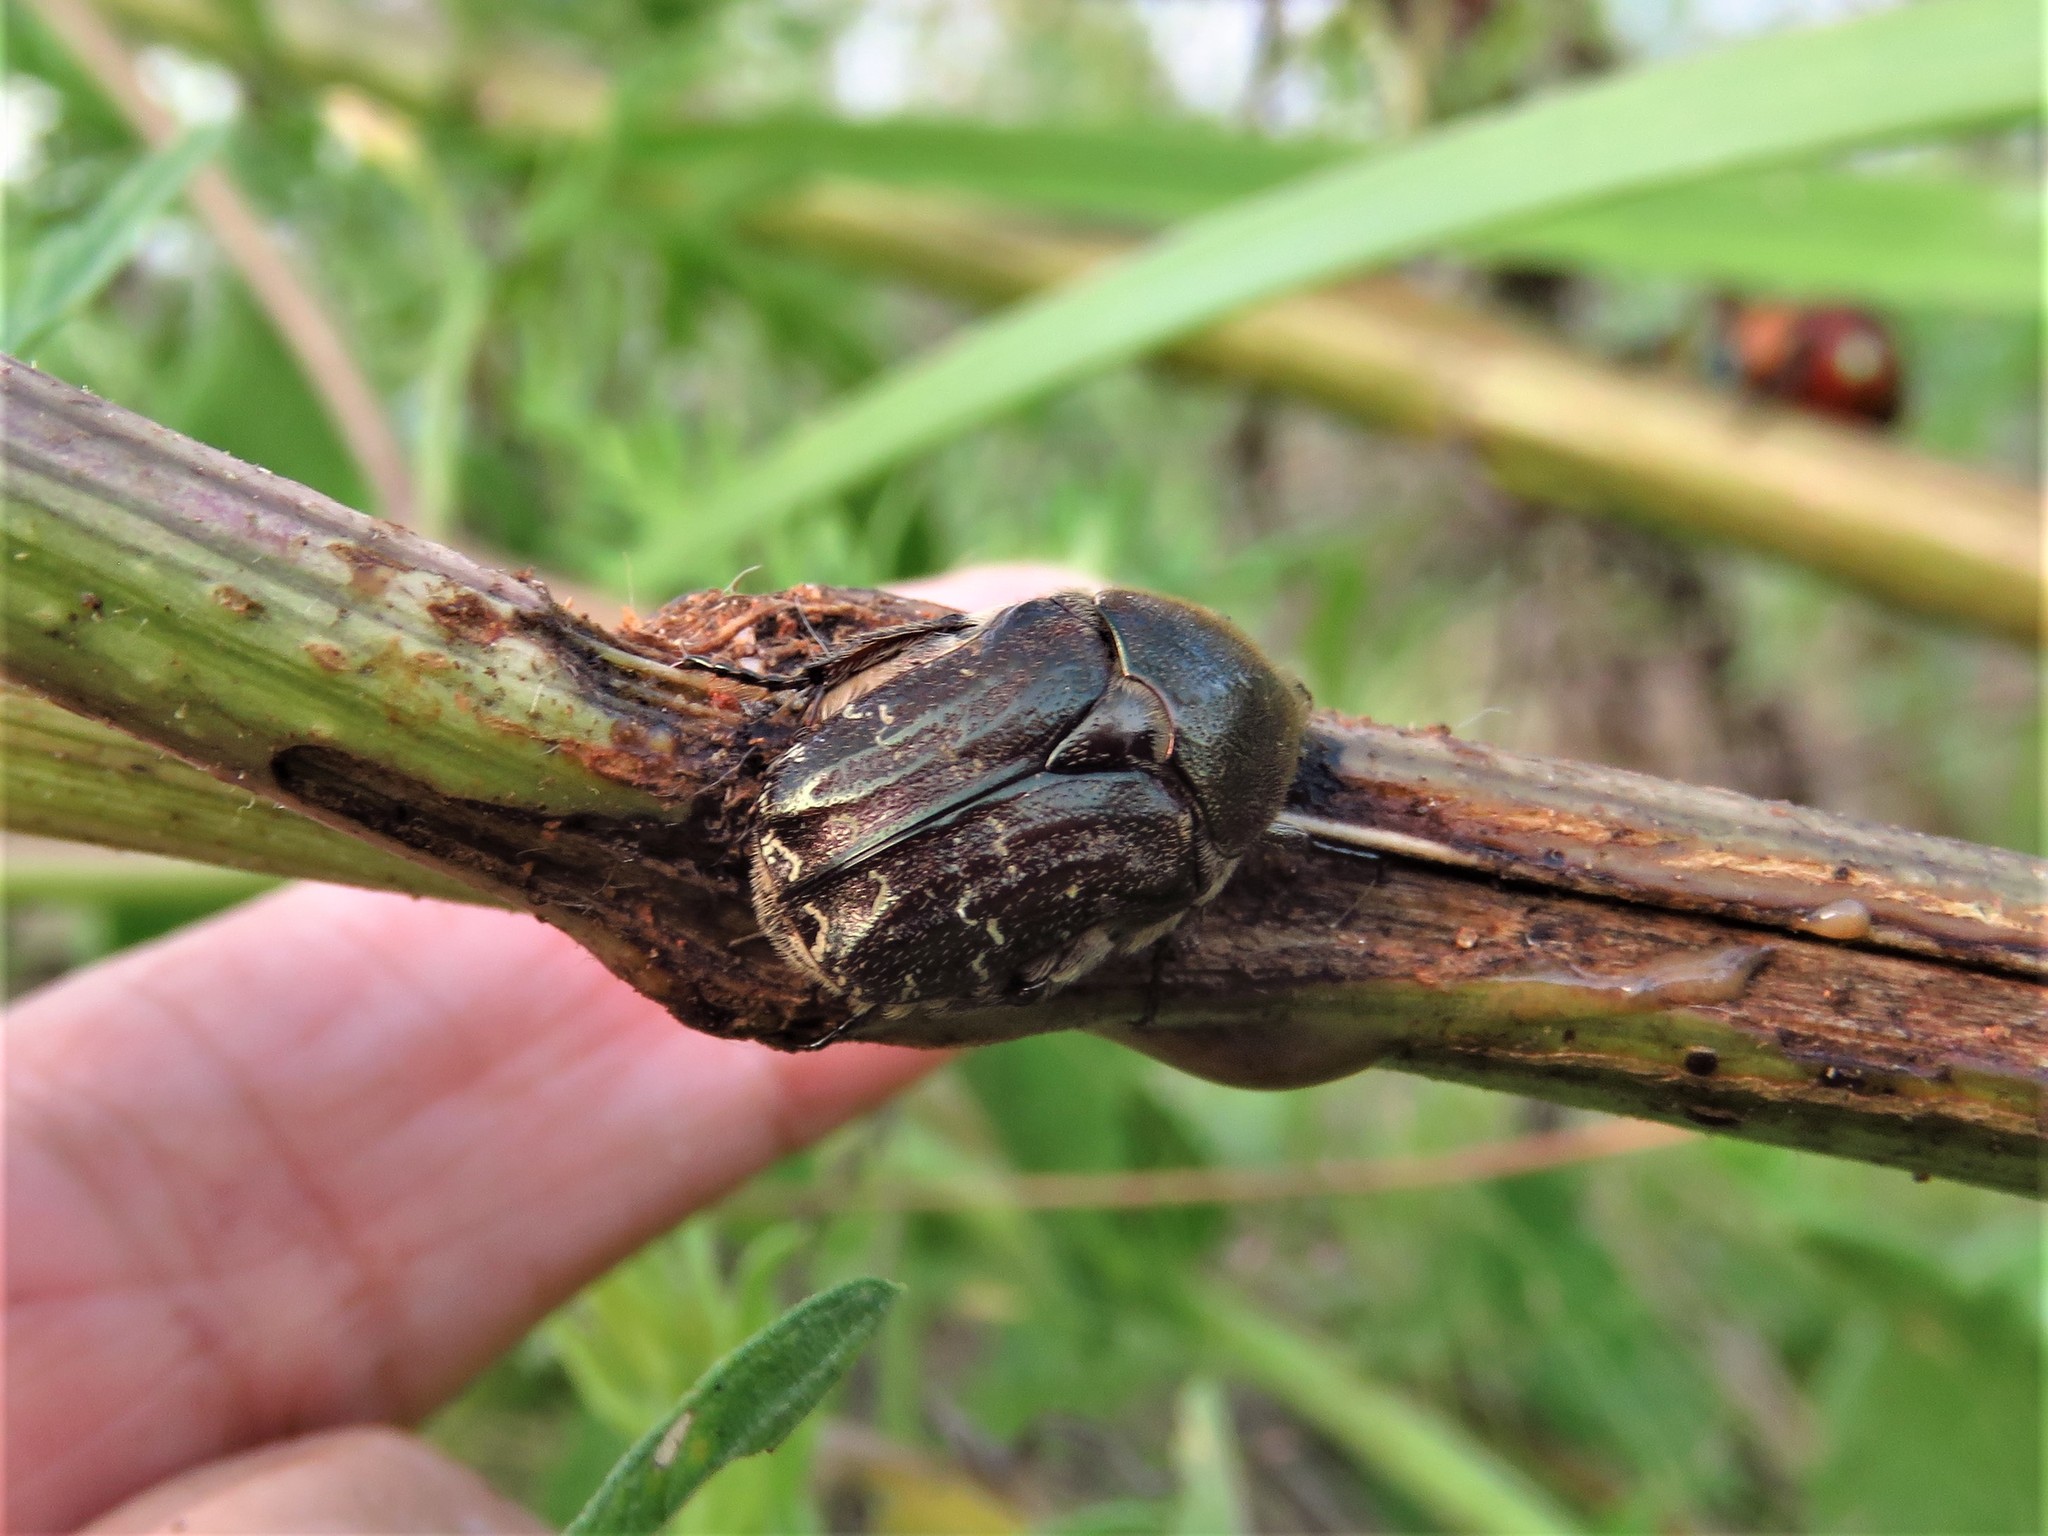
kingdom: Animalia
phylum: Arthropoda
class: Insecta
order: Coleoptera
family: Scarabaeidae
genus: Euphoria
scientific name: Euphoria sepulcralis
